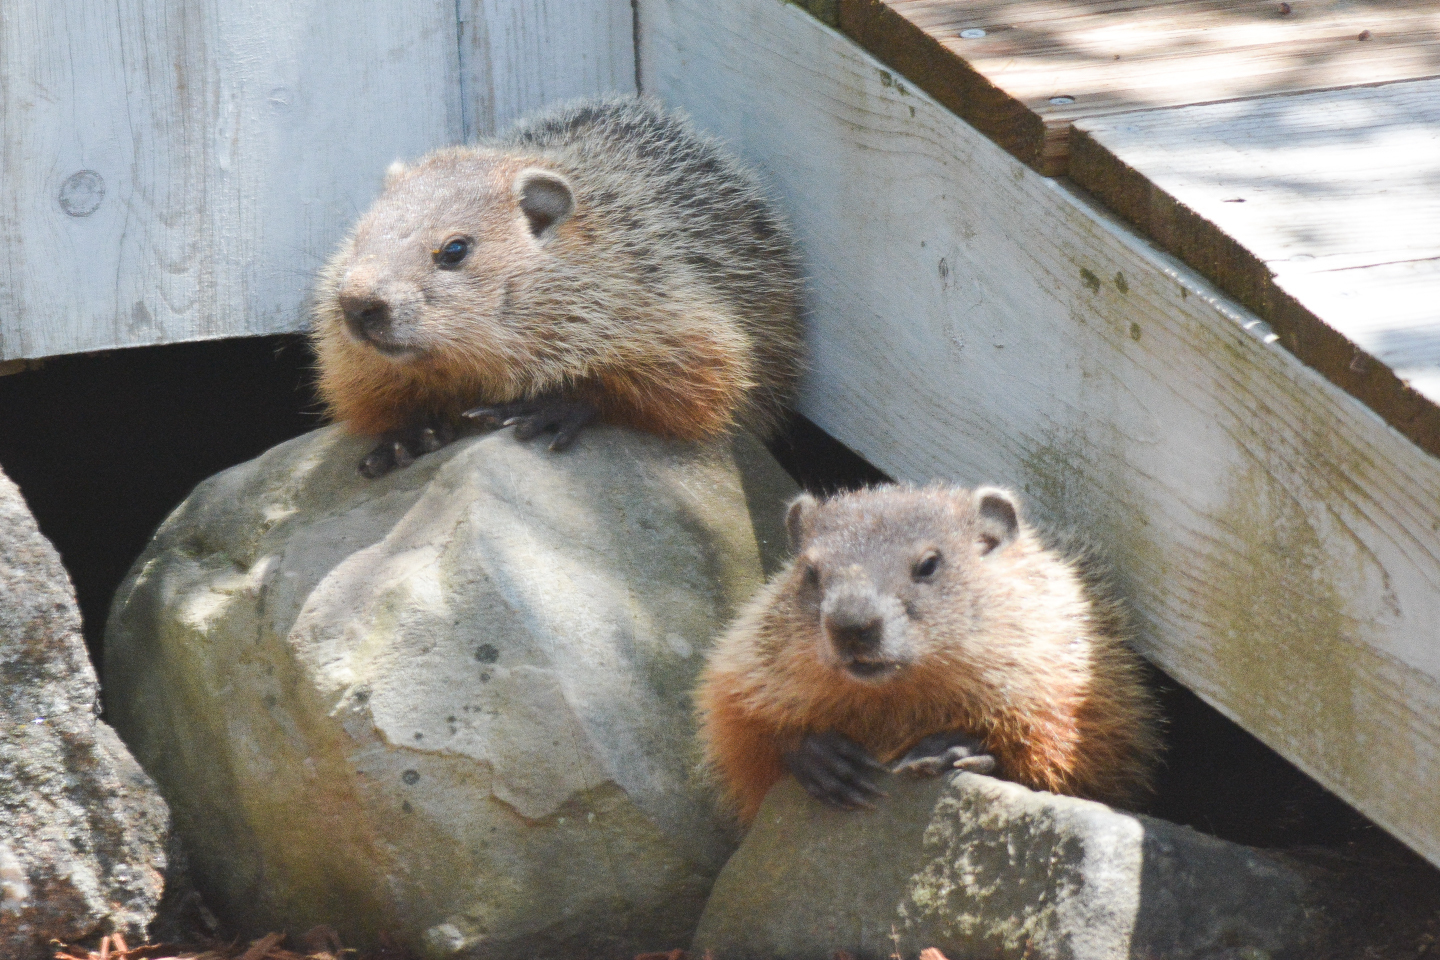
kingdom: Animalia
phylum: Chordata
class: Mammalia
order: Rodentia
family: Sciuridae
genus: Marmota
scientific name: Marmota monax
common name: Groundhog
